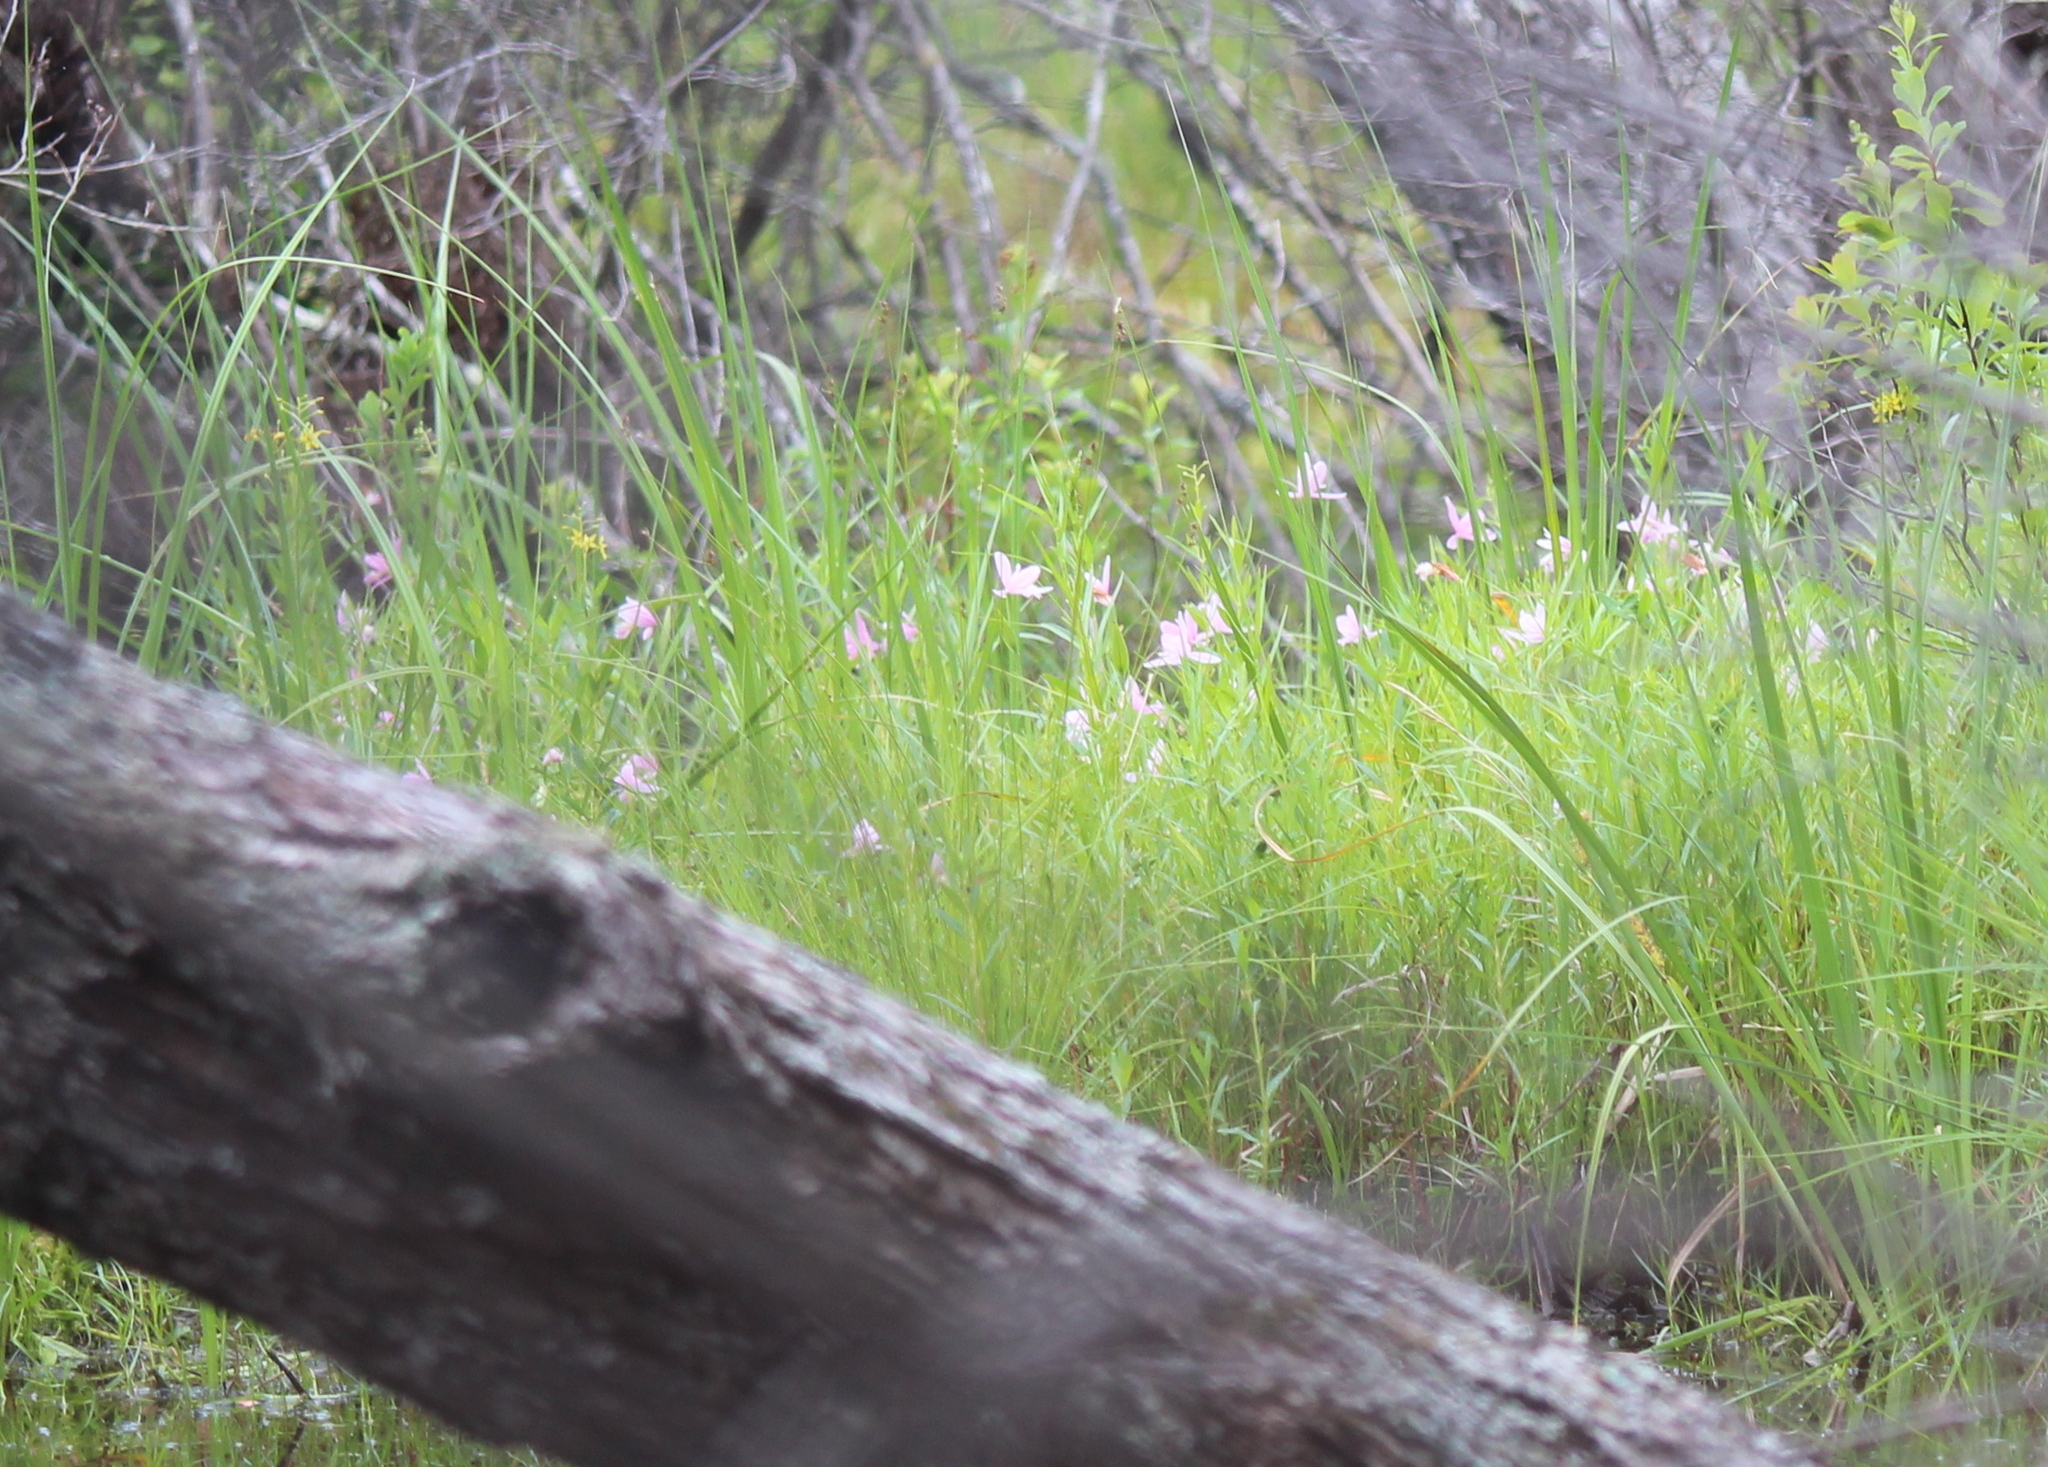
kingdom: Plantae
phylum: Tracheophyta
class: Liliopsida
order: Asparagales
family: Orchidaceae
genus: Pogonia
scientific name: Pogonia ophioglossoides
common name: Rose pogonia
